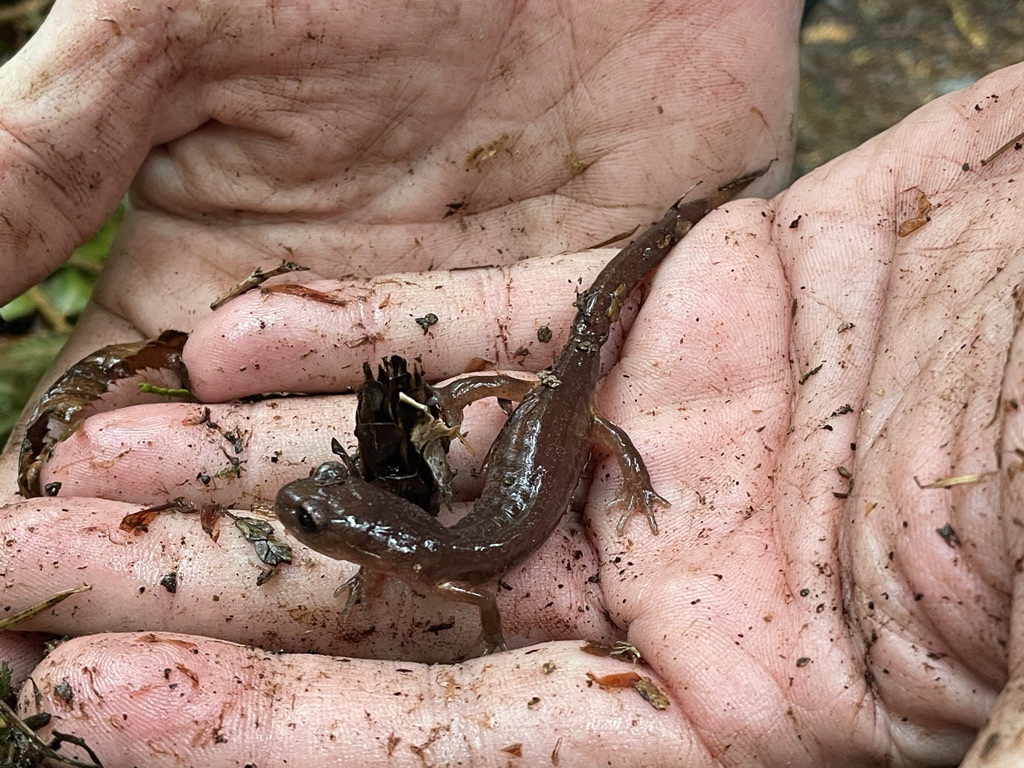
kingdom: Animalia
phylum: Chordata
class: Amphibia
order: Caudata
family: Plethodontidae
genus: Ensatina
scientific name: Ensatina eschscholtzii
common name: Ensatina
